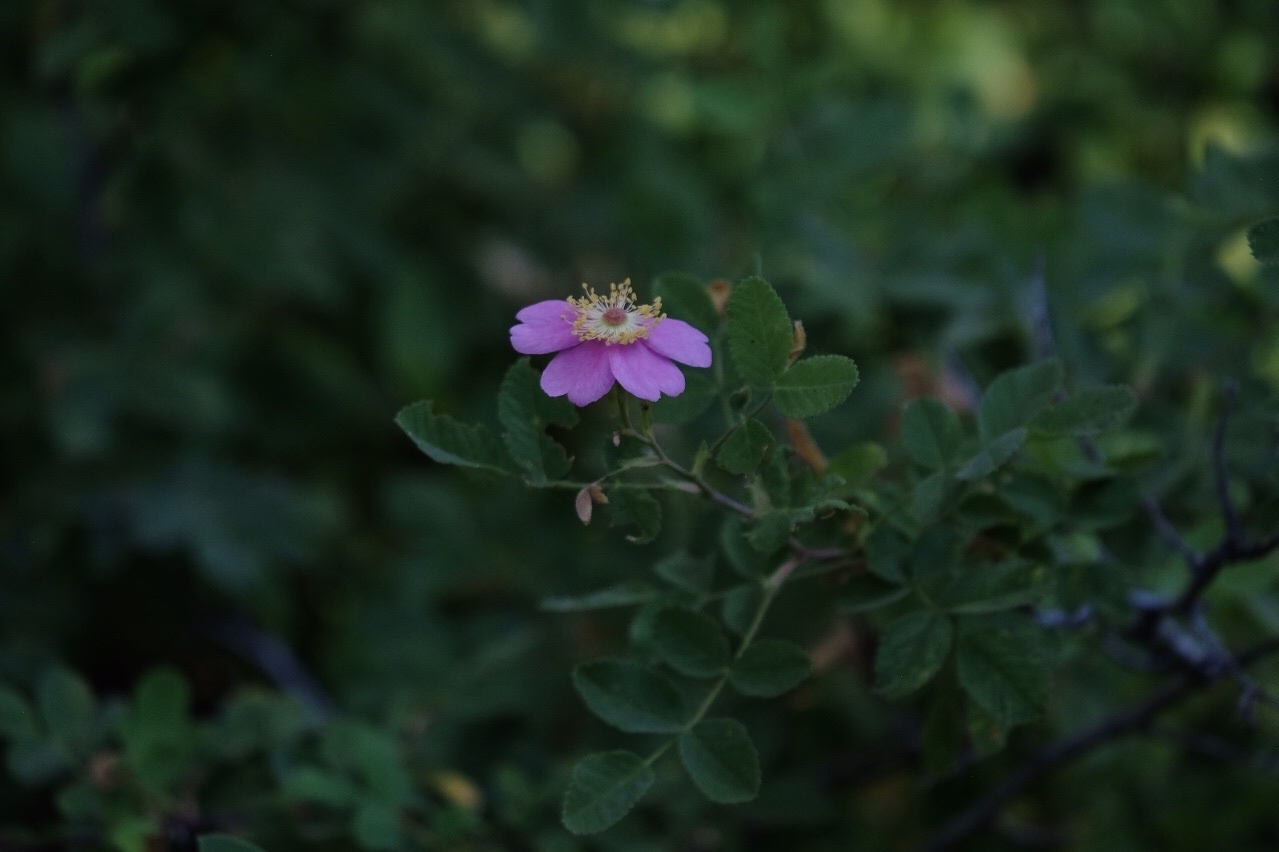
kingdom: Plantae
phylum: Tracheophyta
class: Magnoliopsida
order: Rosales
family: Rosaceae
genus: Rosa
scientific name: Rosa californica
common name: California rose
